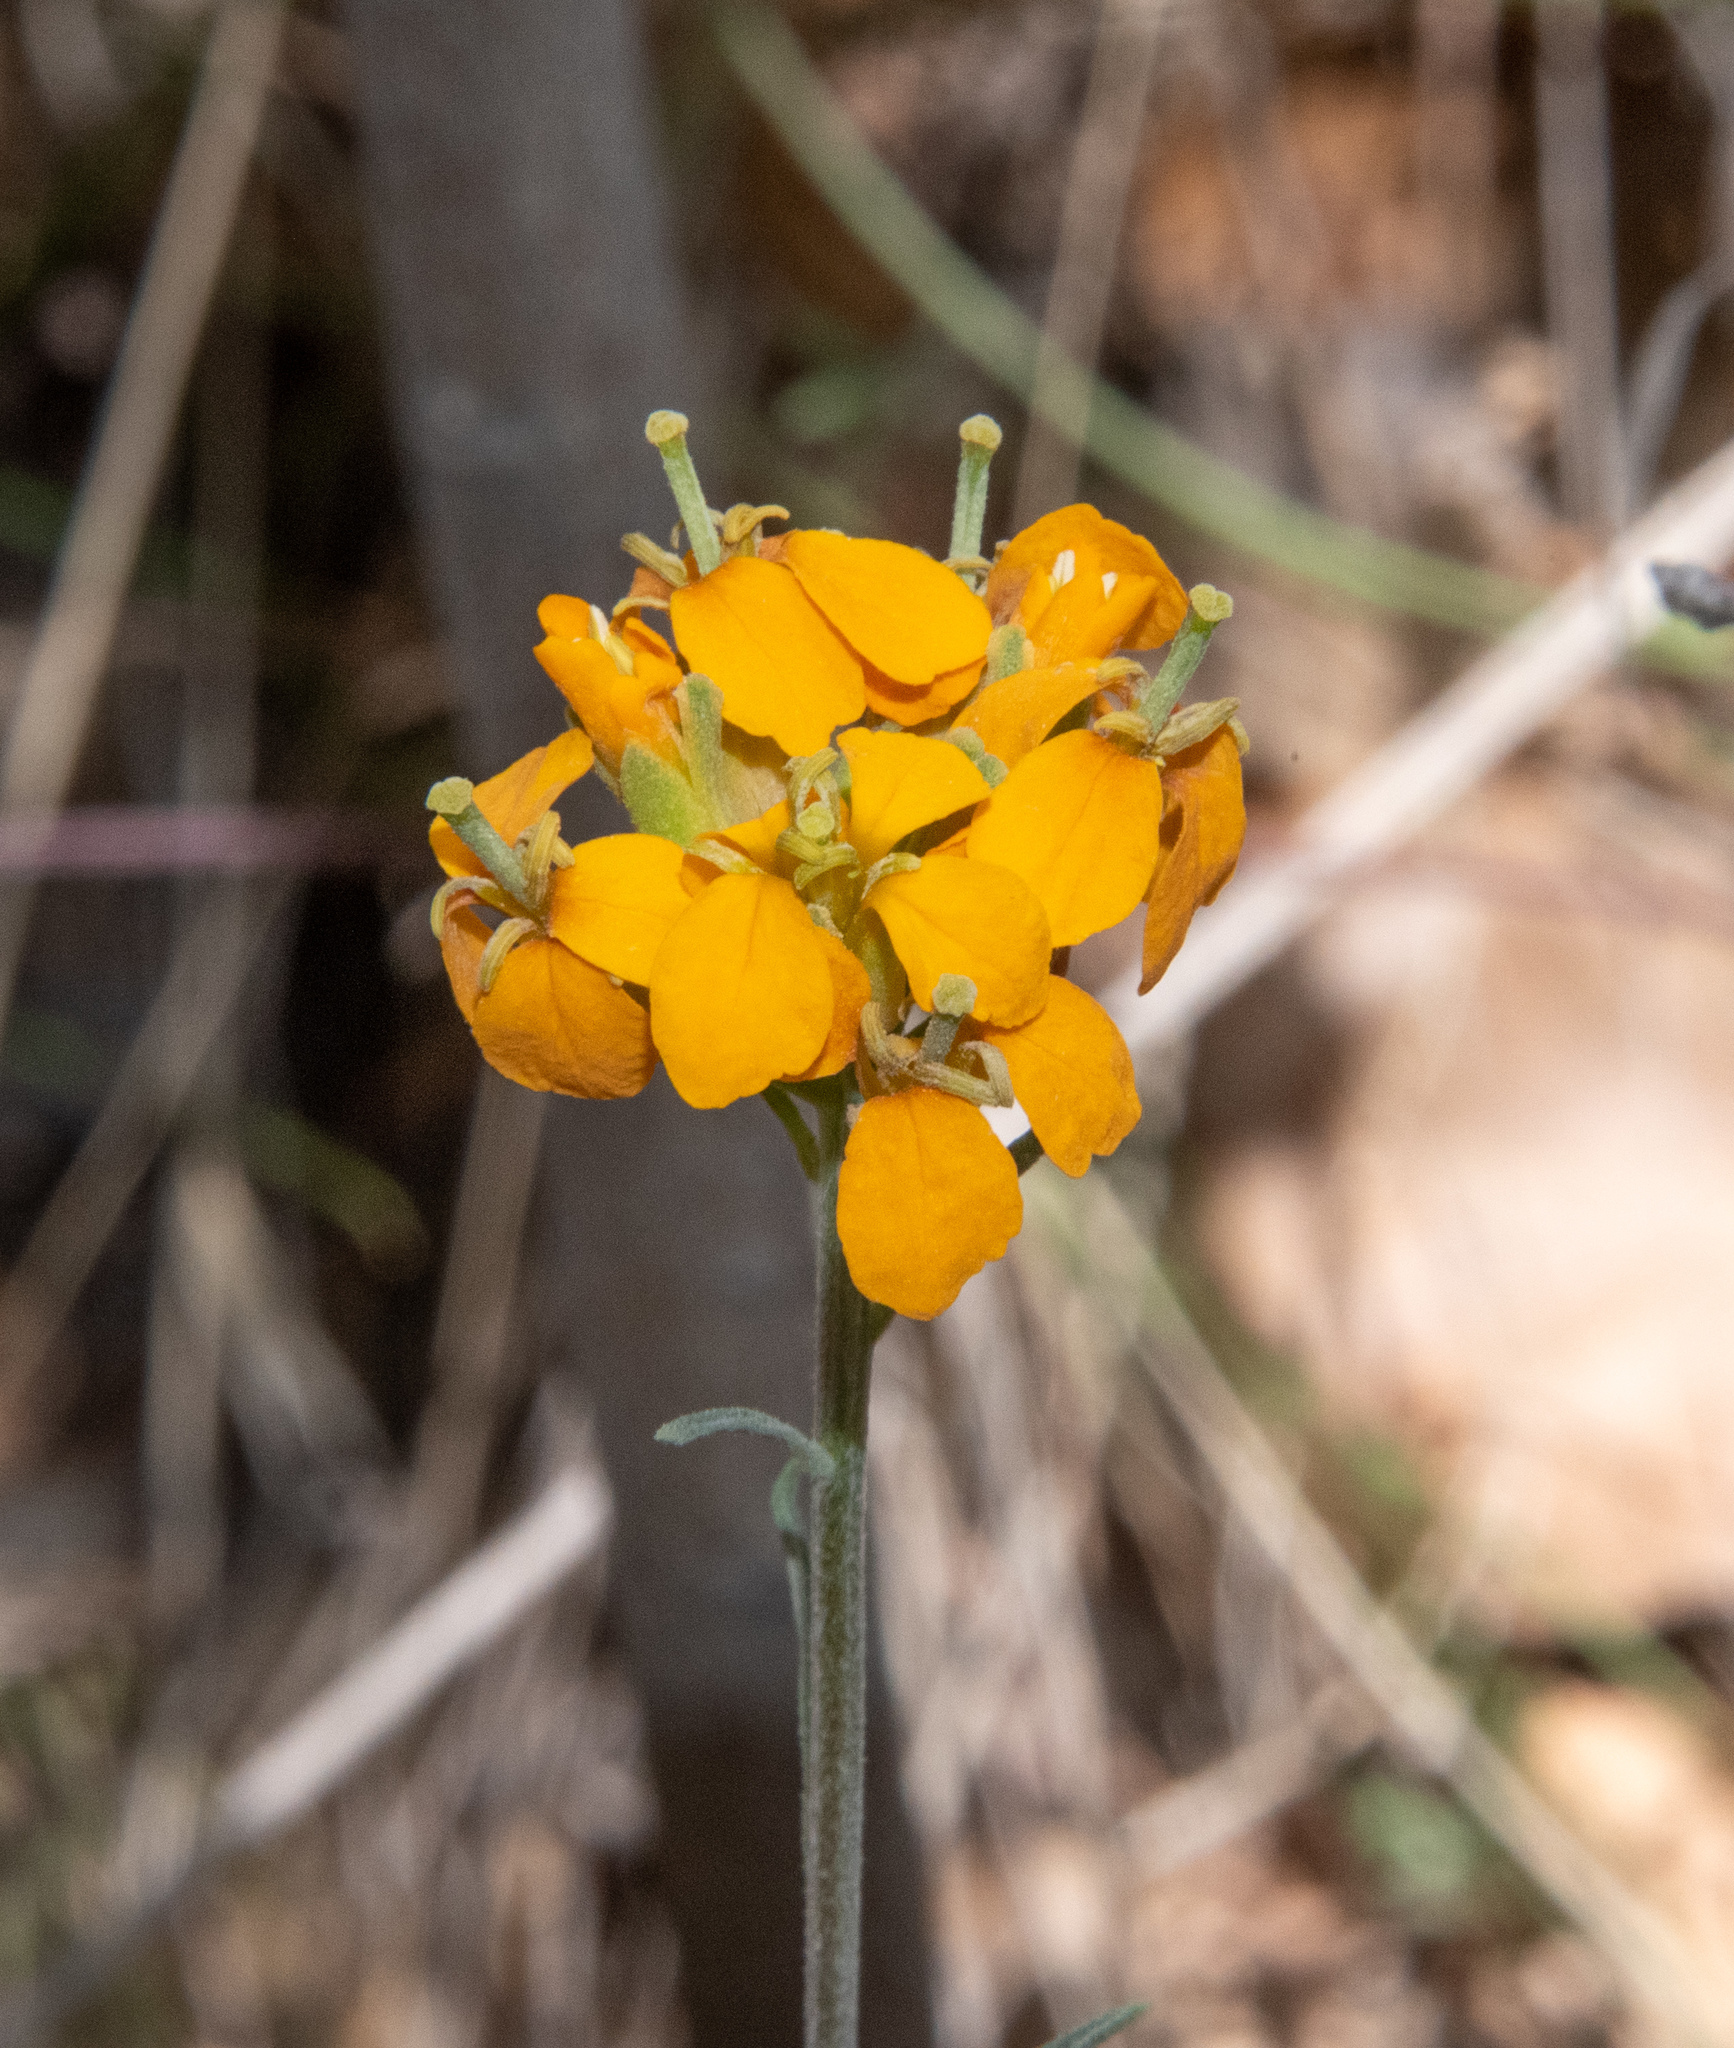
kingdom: Plantae
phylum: Tracheophyta
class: Magnoliopsida
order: Brassicales
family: Brassicaceae
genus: Erysimum
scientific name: Erysimum capitatum
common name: Western wallflower
